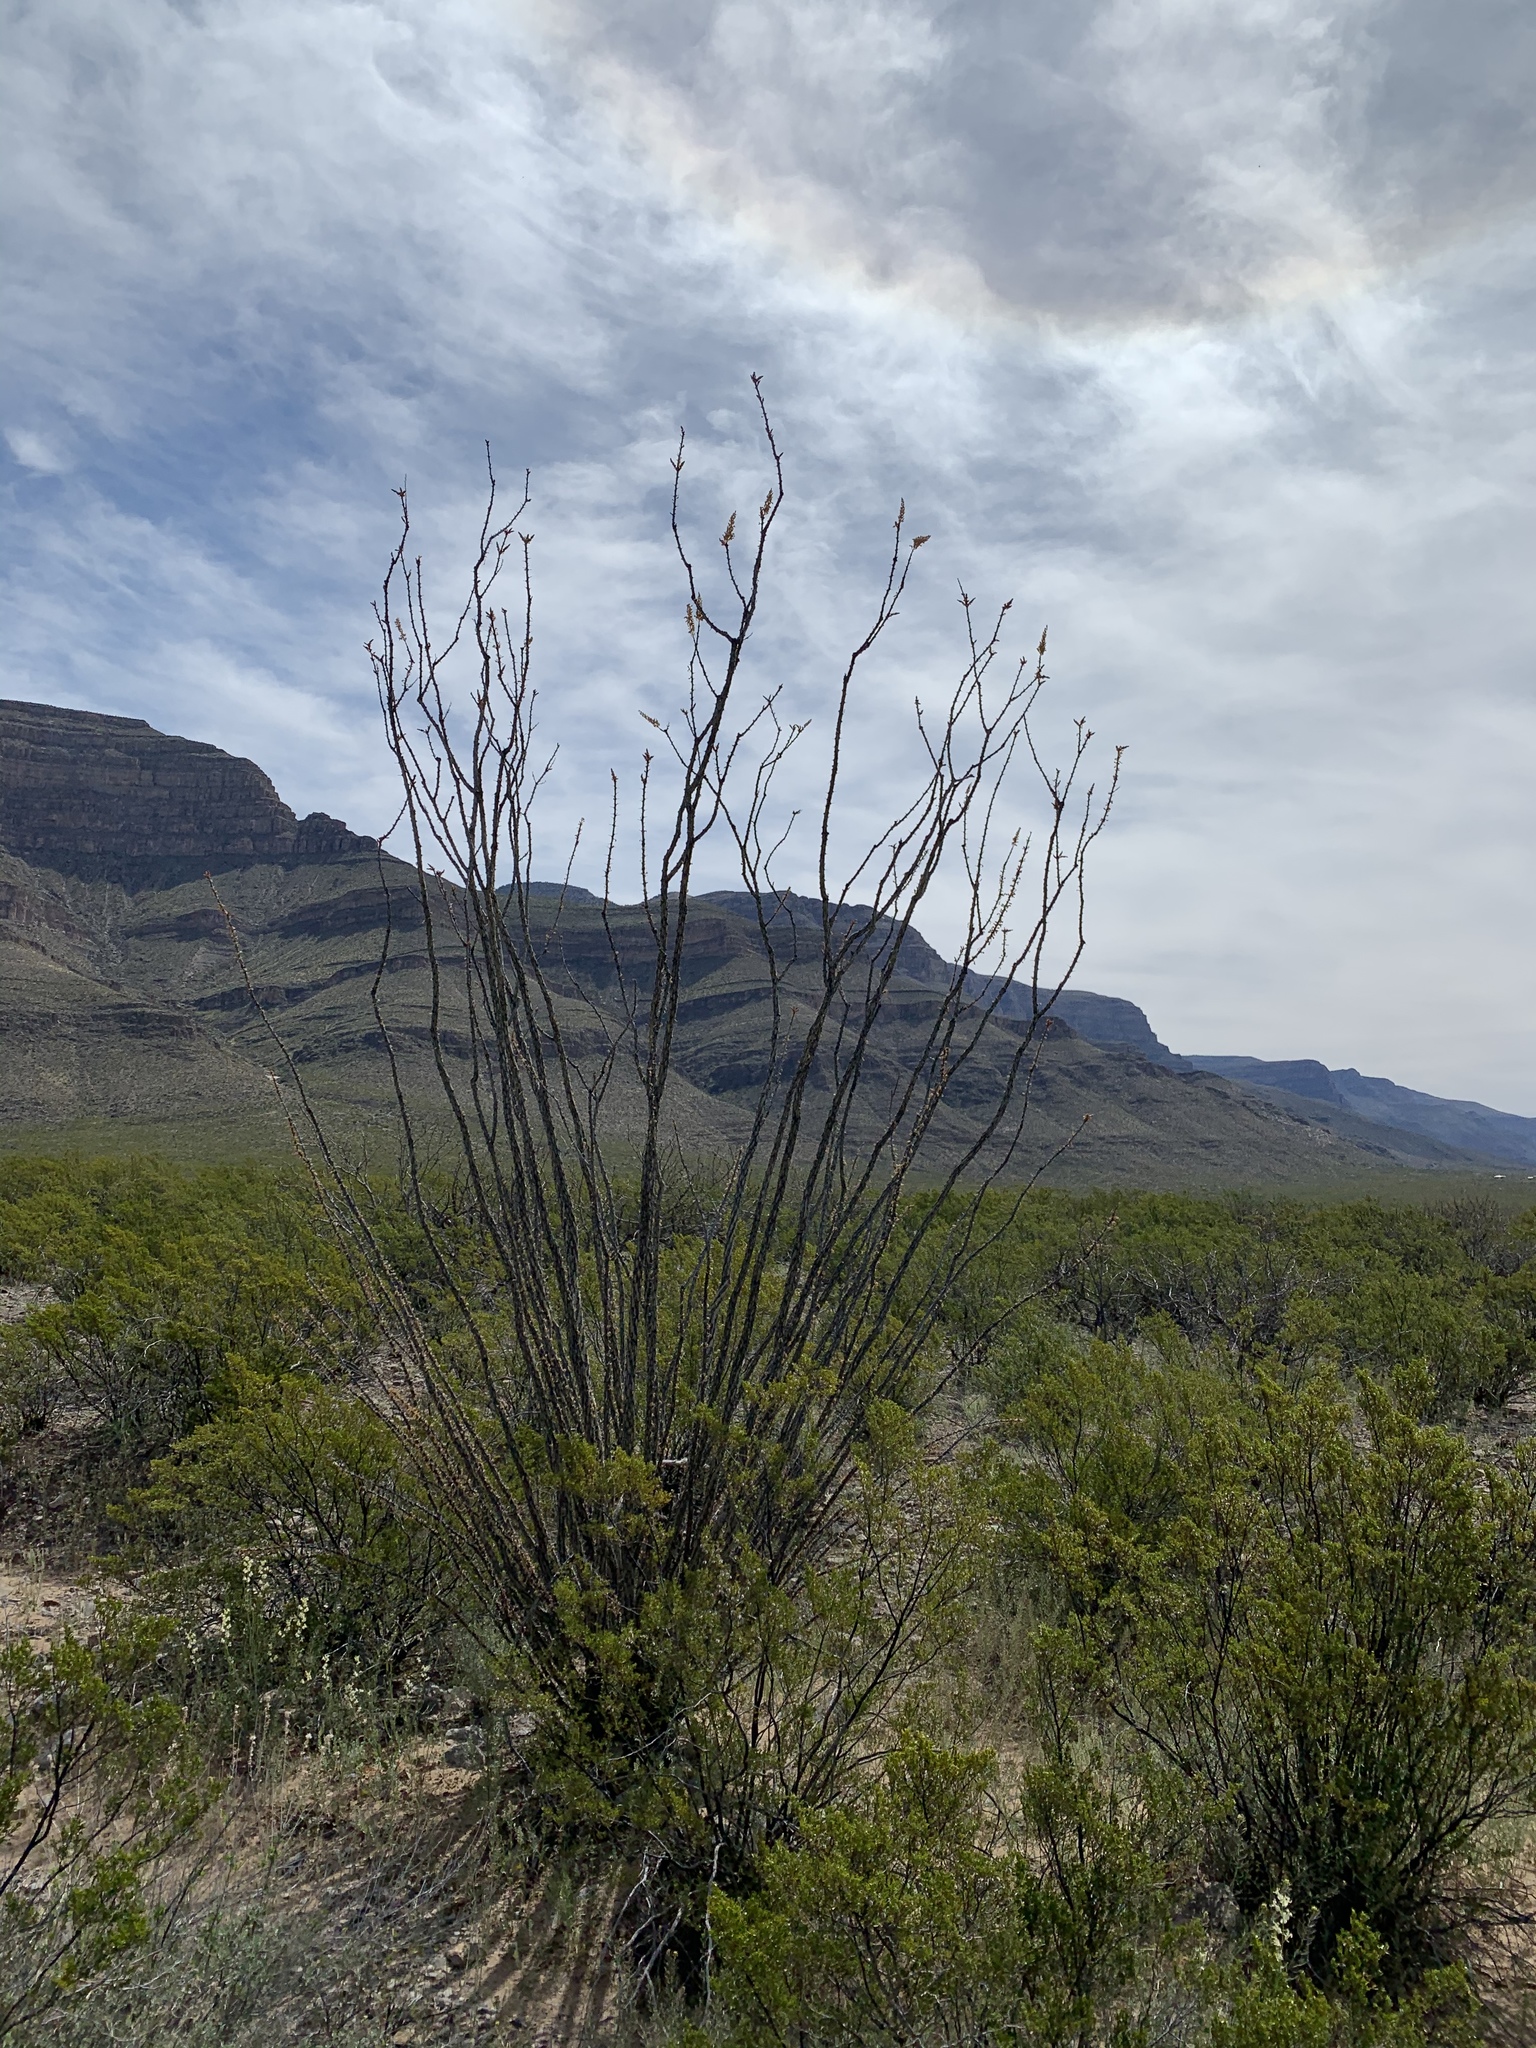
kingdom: Plantae
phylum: Tracheophyta
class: Magnoliopsida
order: Ericales
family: Fouquieriaceae
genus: Fouquieria
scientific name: Fouquieria splendens
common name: Vine-cactus
